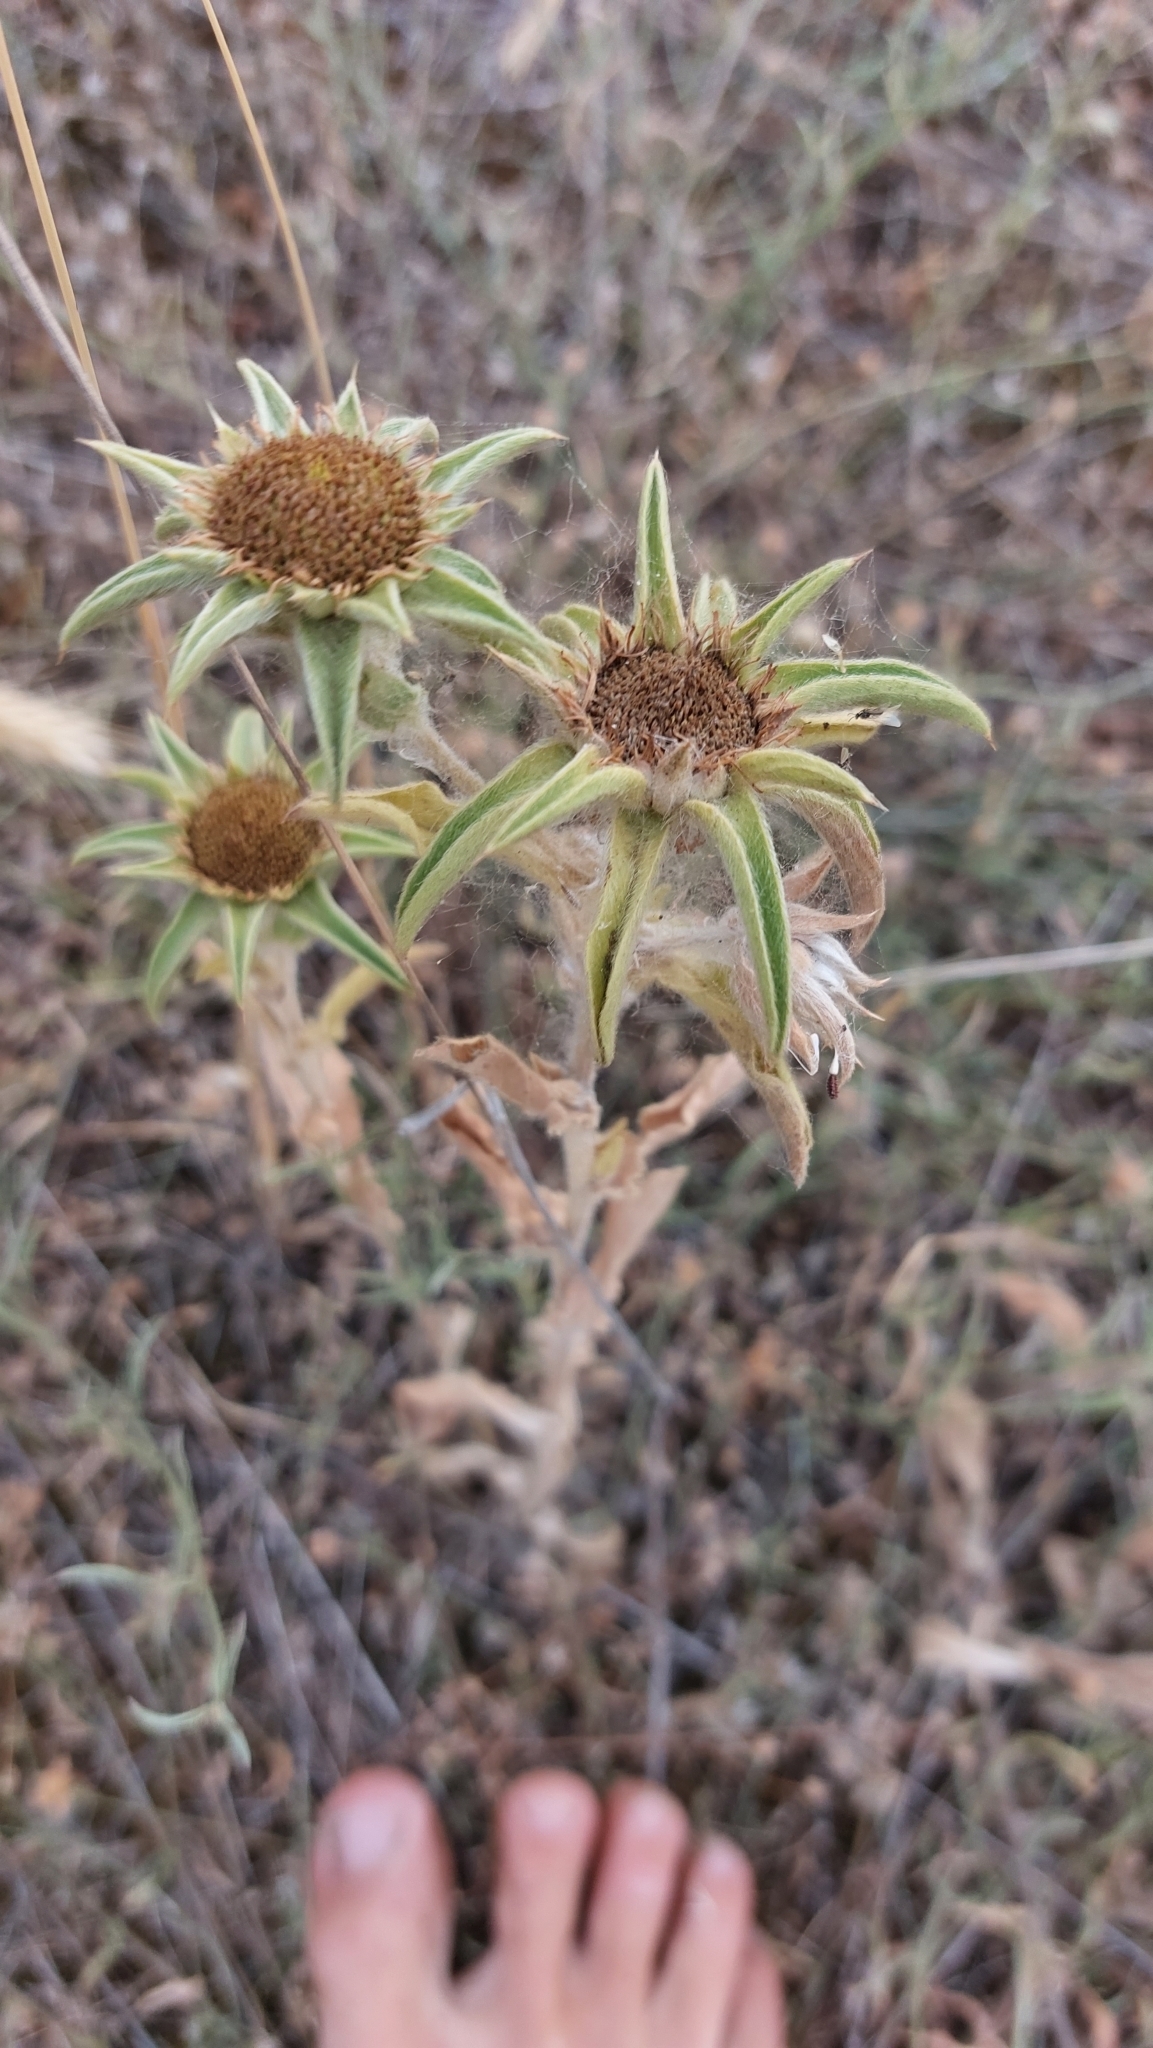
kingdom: Plantae
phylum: Tracheophyta
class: Magnoliopsida
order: Asterales
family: Asteraceae
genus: Pallenis
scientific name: Pallenis spinosa
